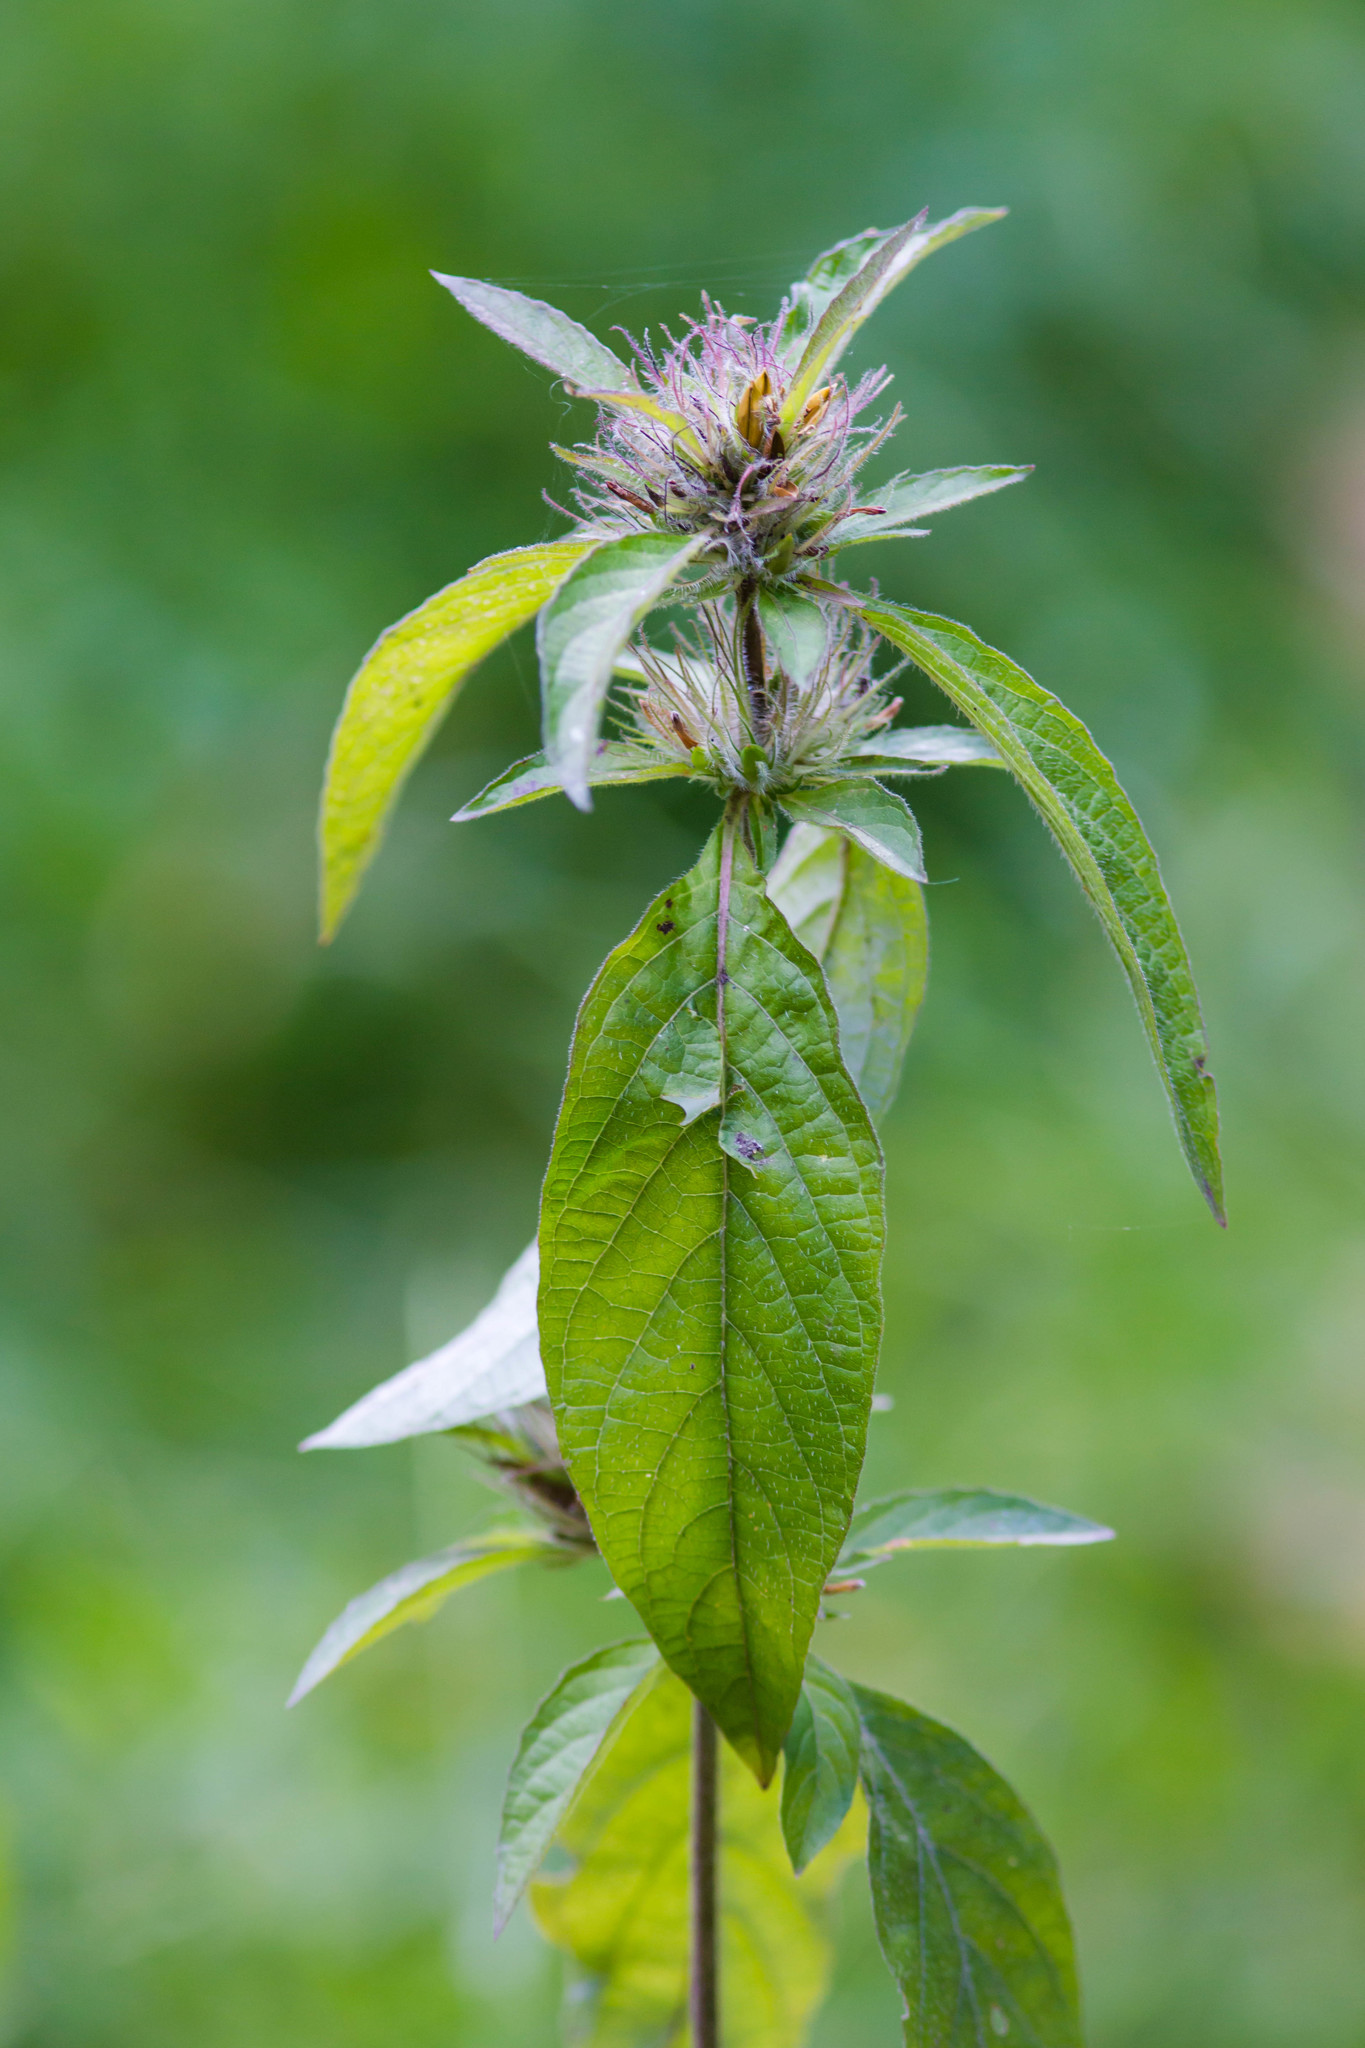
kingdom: Plantae
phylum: Tracheophyta
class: Magnoliopsida
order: Lamiales
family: Acanthaceae
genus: Ruellia
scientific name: Ruellia caroliniensis
